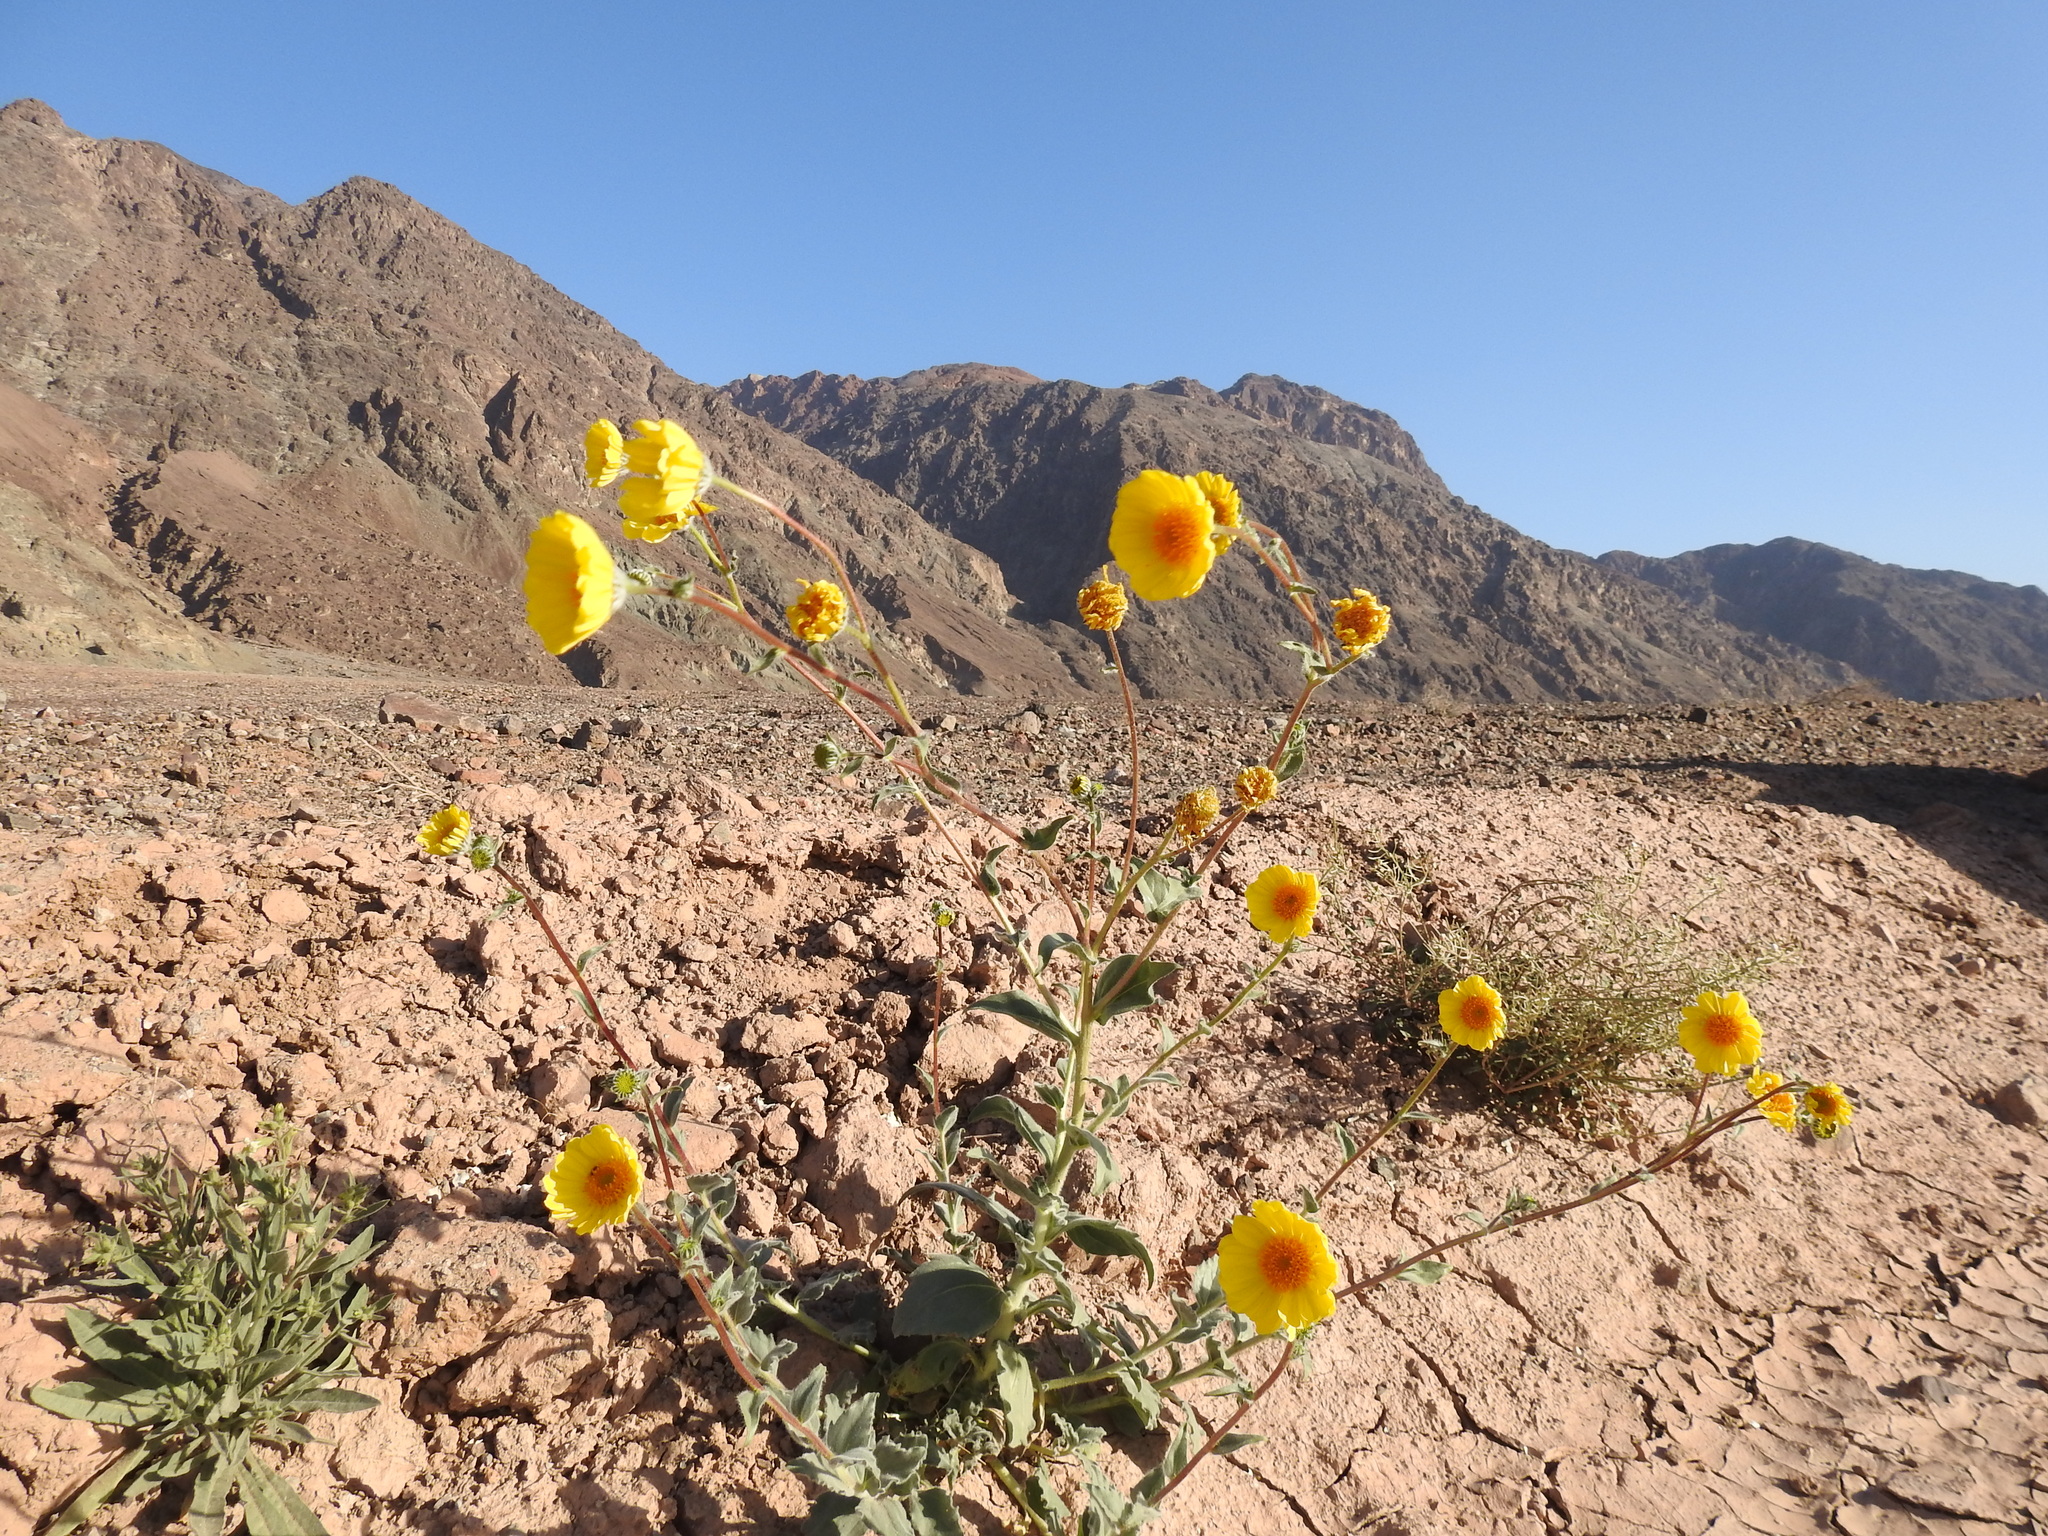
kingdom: Plantae
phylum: Tracheophyta
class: Magnoliopsida
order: Asterales
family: Asteraceae
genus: Geraea
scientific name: Geraea canescens
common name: Desert-gold
